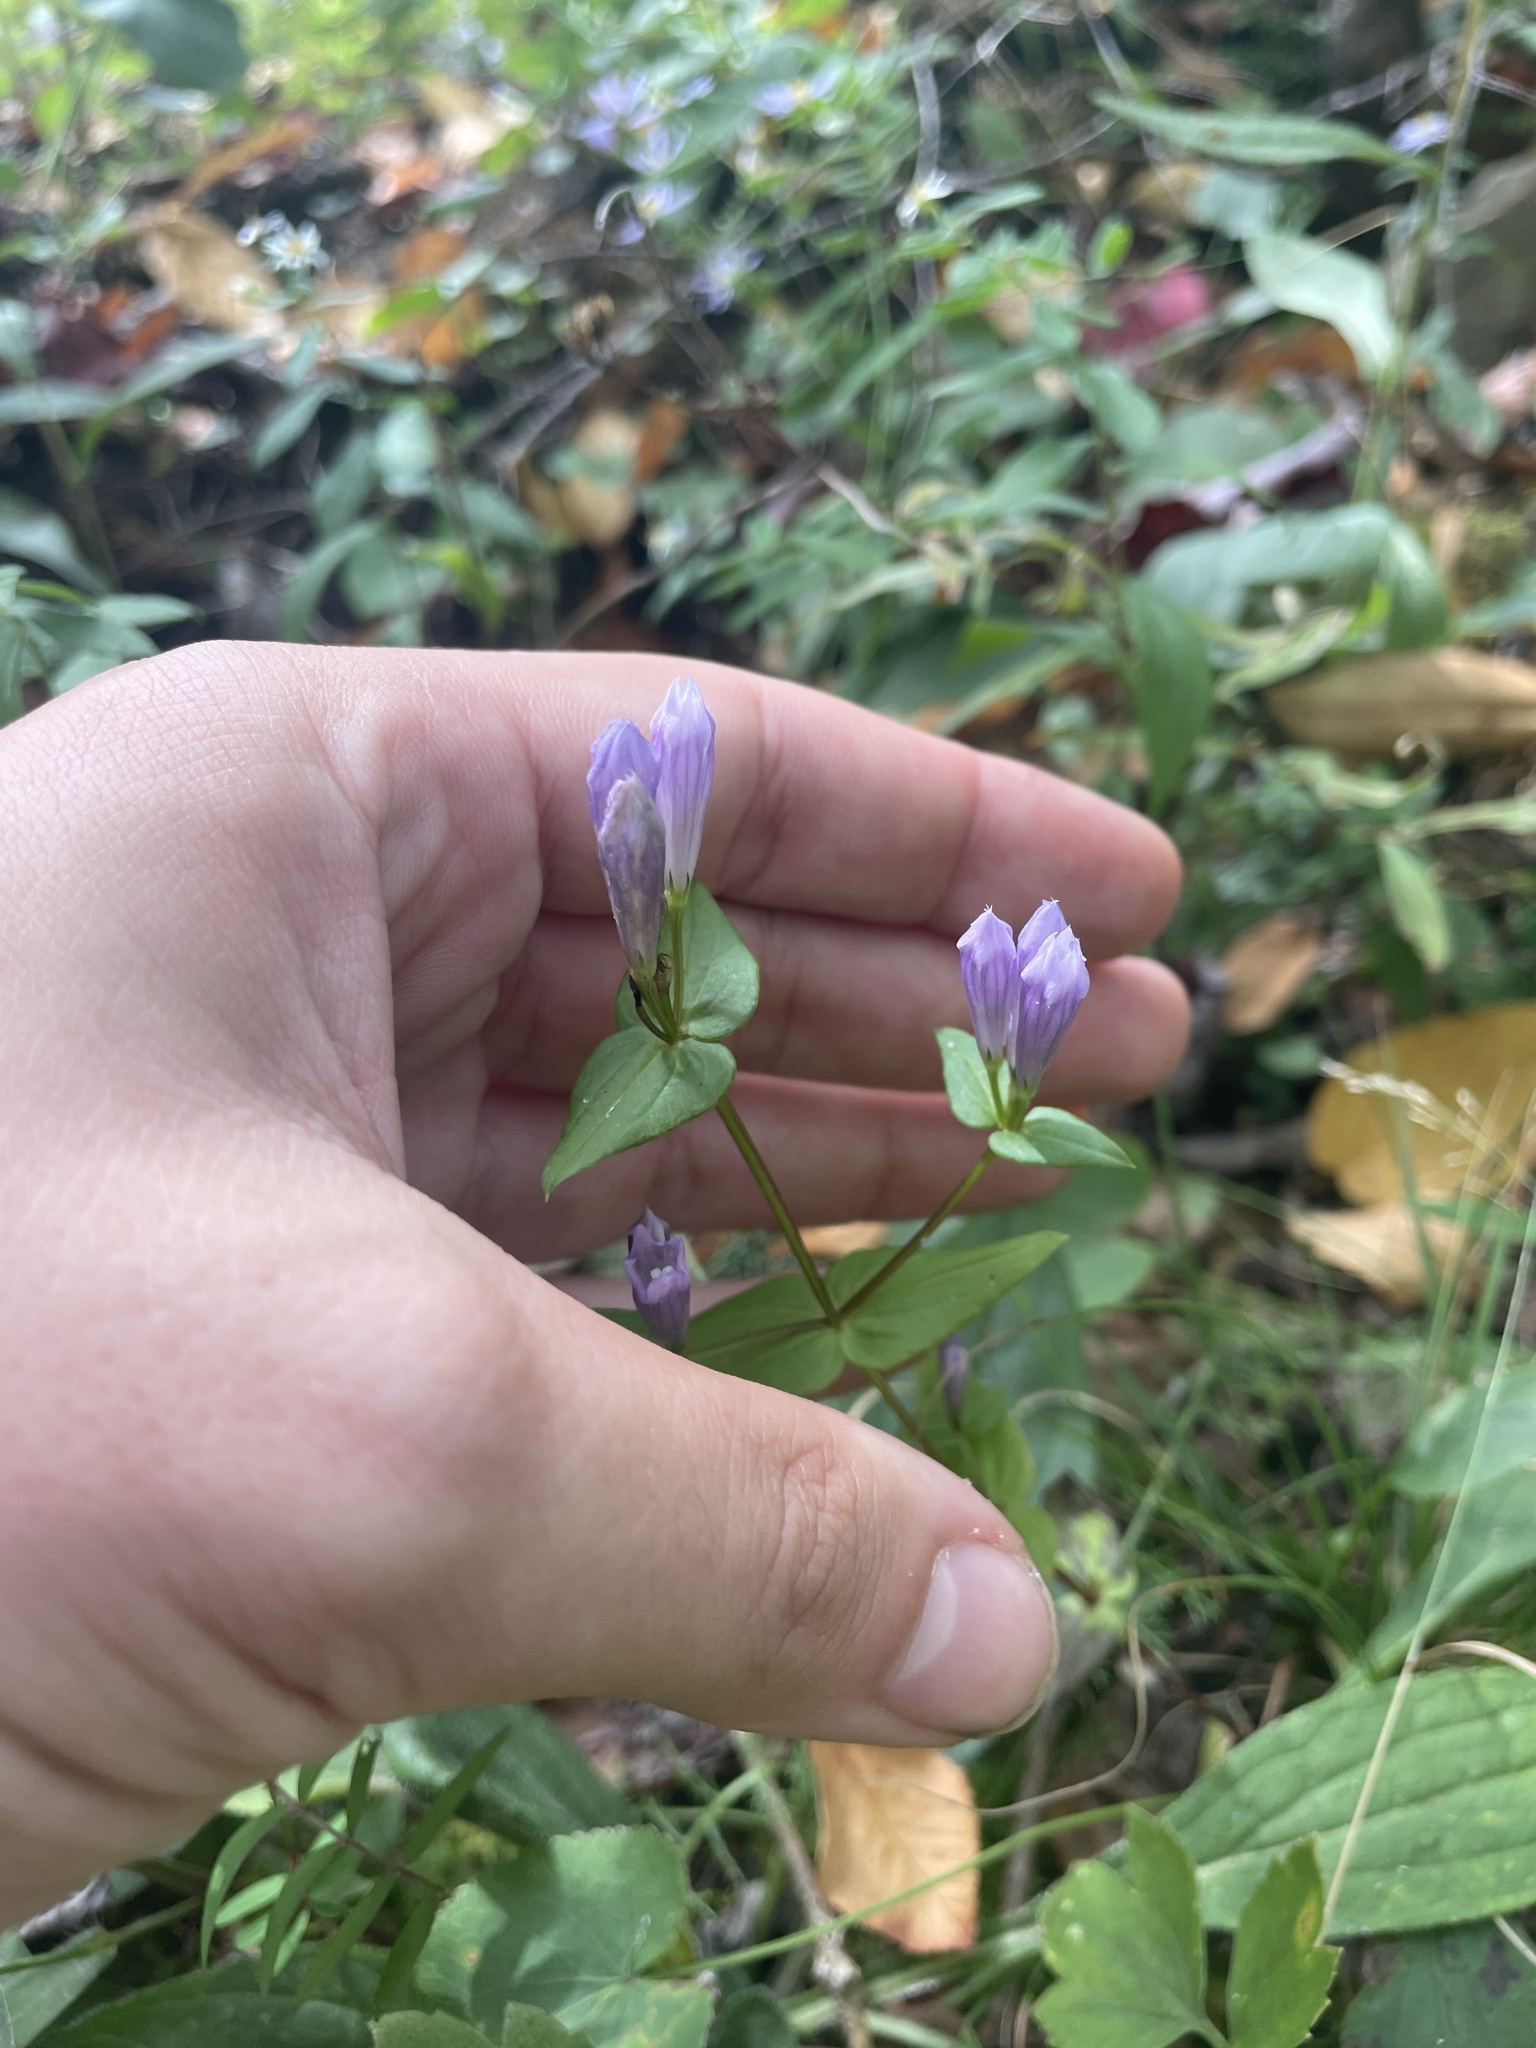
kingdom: Plantae
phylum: Tracheophyta
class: Magnoliopsida
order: Gentianales
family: Gentianaceae
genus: Gentianella
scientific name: Gentianella quinquefolia
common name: Agueweed
